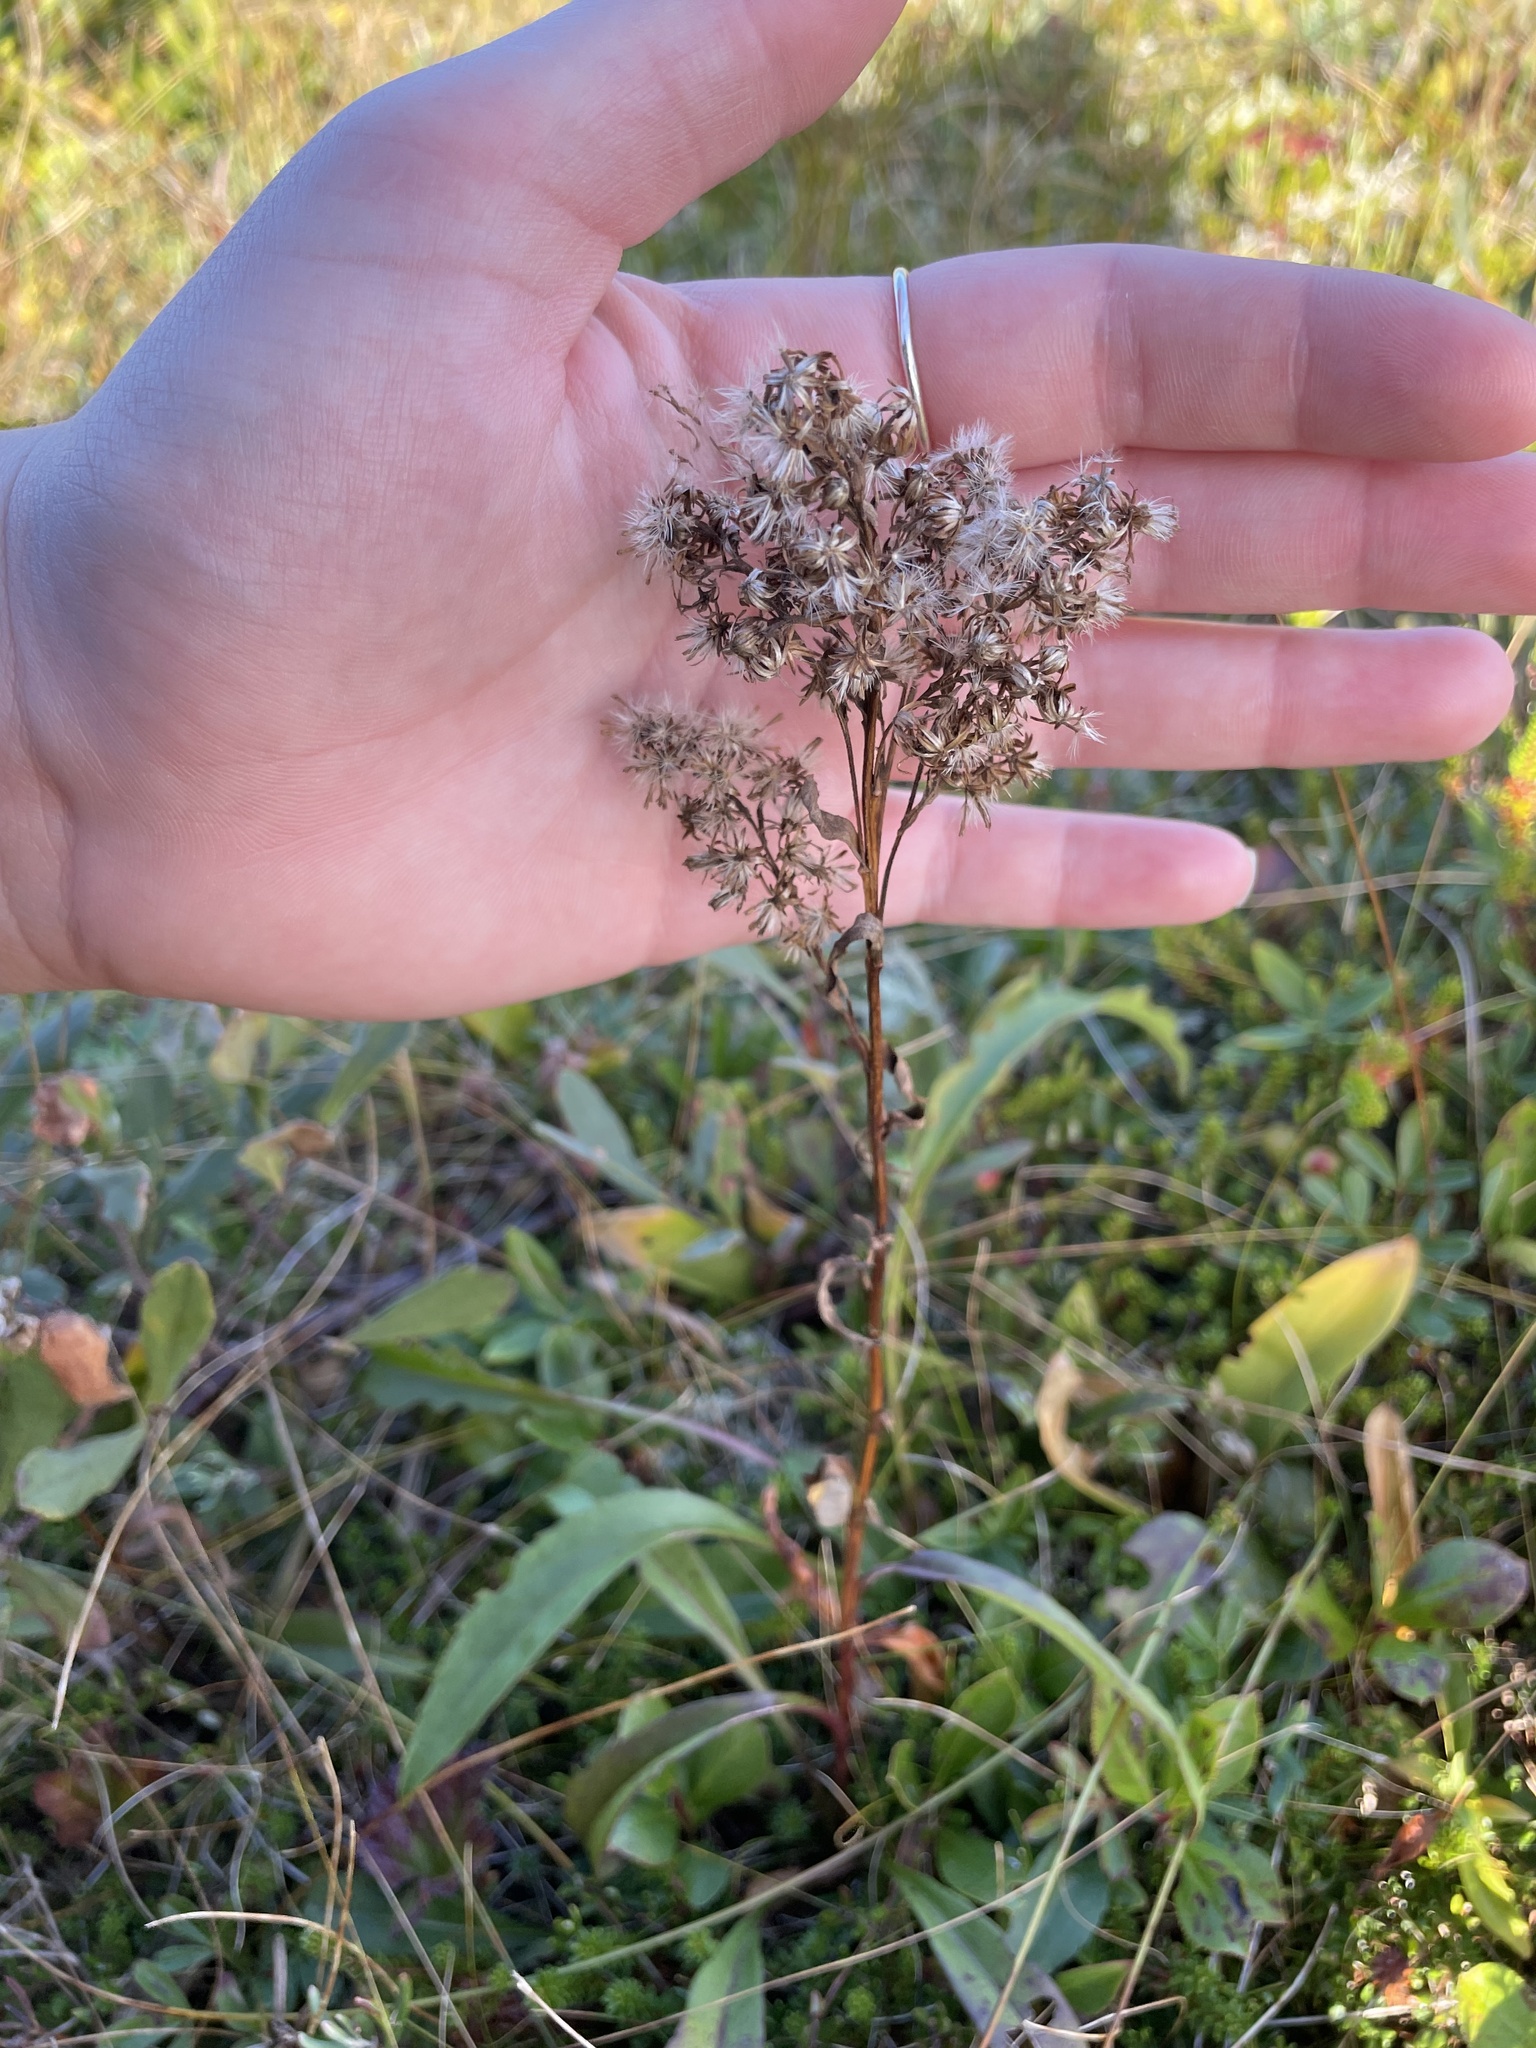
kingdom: Plantae
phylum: Tracheophyta
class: Magnoliopsida
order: Asterales
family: Asteraceae
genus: Solidago
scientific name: Solidago uliginosa
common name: Bog goldenrod
